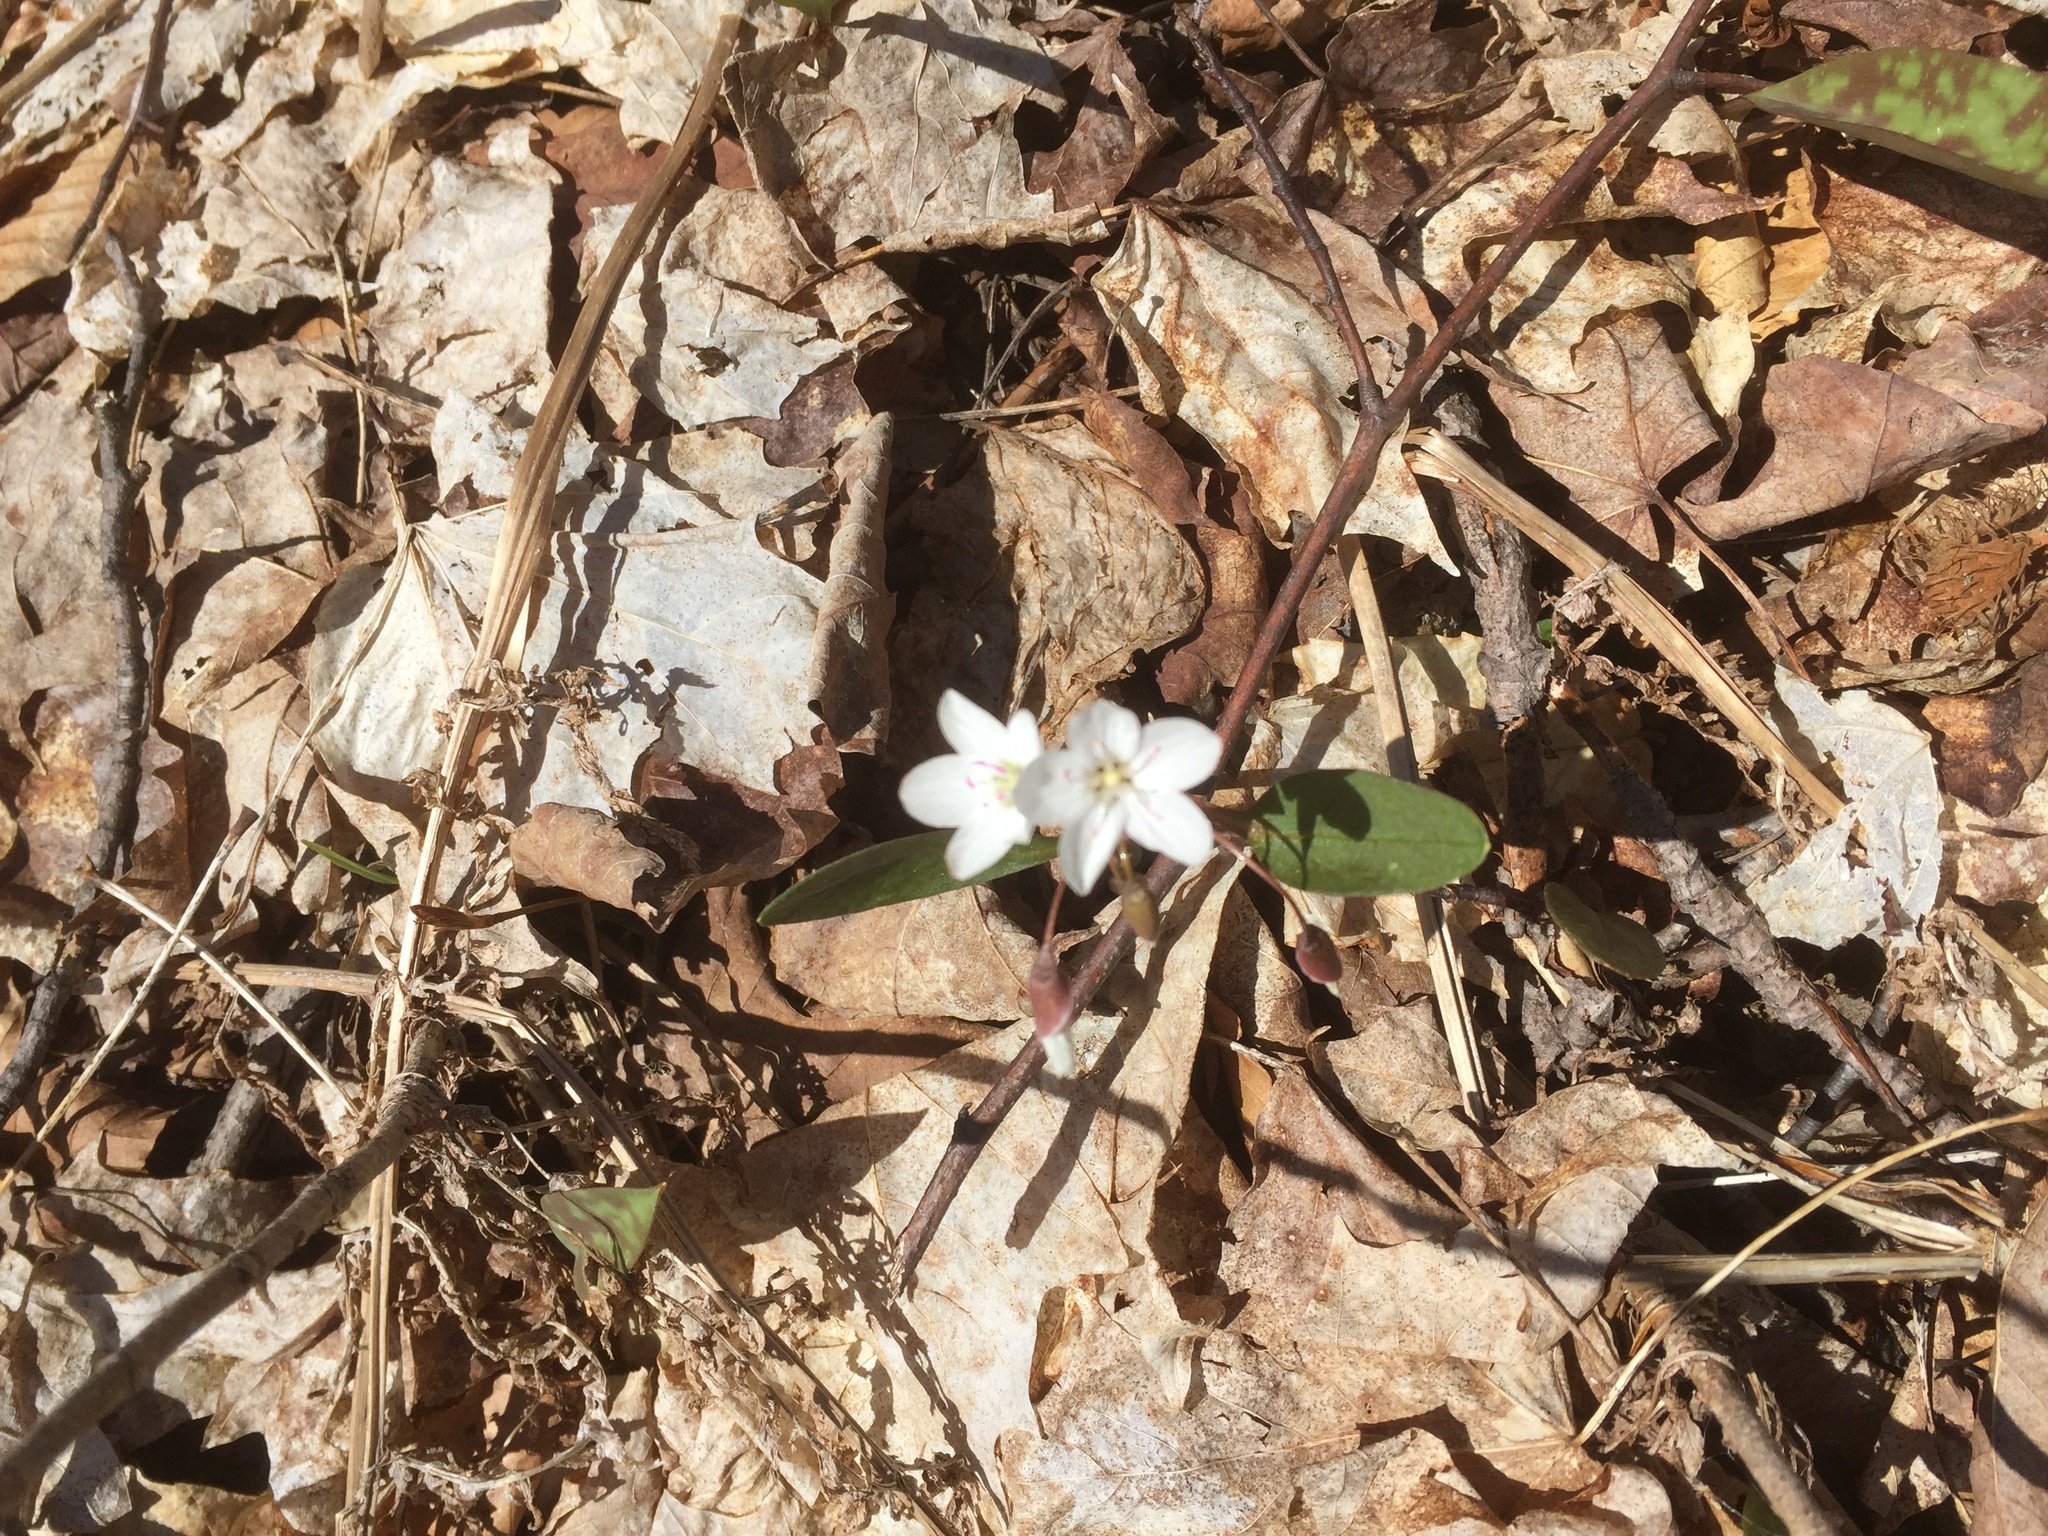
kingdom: Plantae
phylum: Tracheophyta
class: Magnoliopsida
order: Caryophyllales
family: Montiaceae
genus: Claytonia
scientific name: Claytonia caroliniana
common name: Carolina spring beauty
